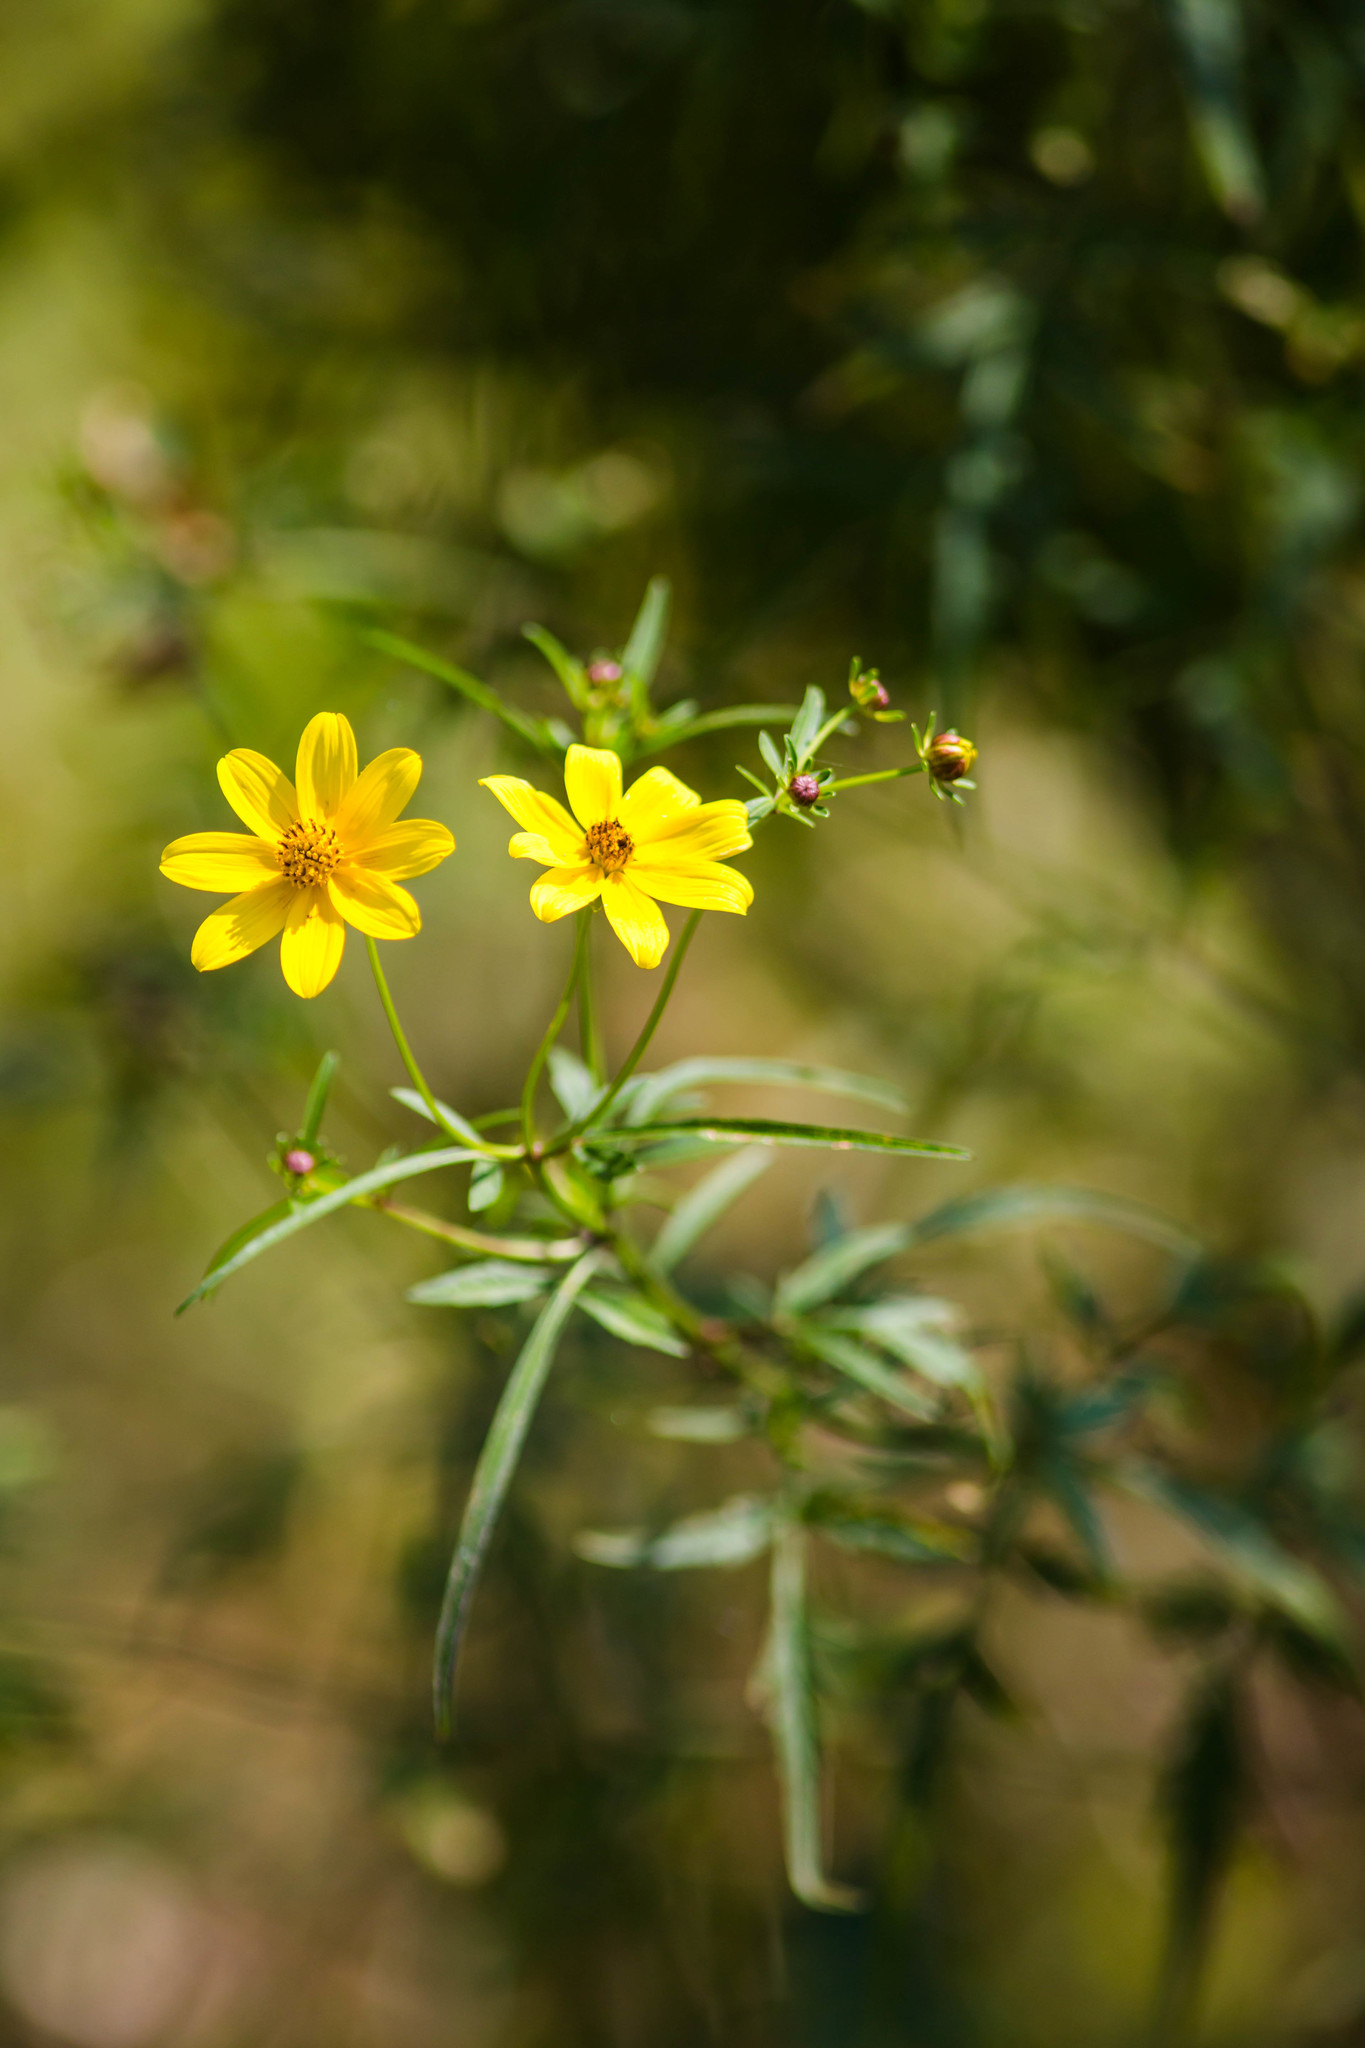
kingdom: Plantae
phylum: Tracheophyta
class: Magnoliopsida
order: Asterales
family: Asteraceae
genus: Bidens
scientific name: Bidens mitis
